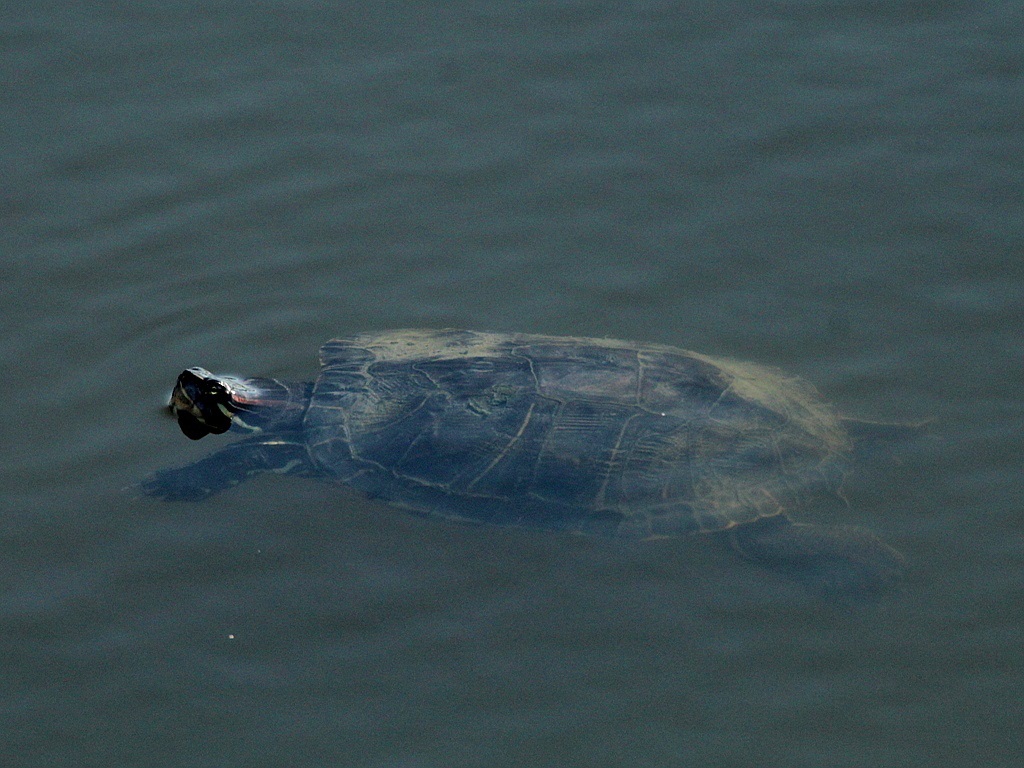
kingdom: Animalia
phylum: Chordata
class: Testudines
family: Emydidae
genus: Trachemys
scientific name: Trachemys scripta
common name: Slider
